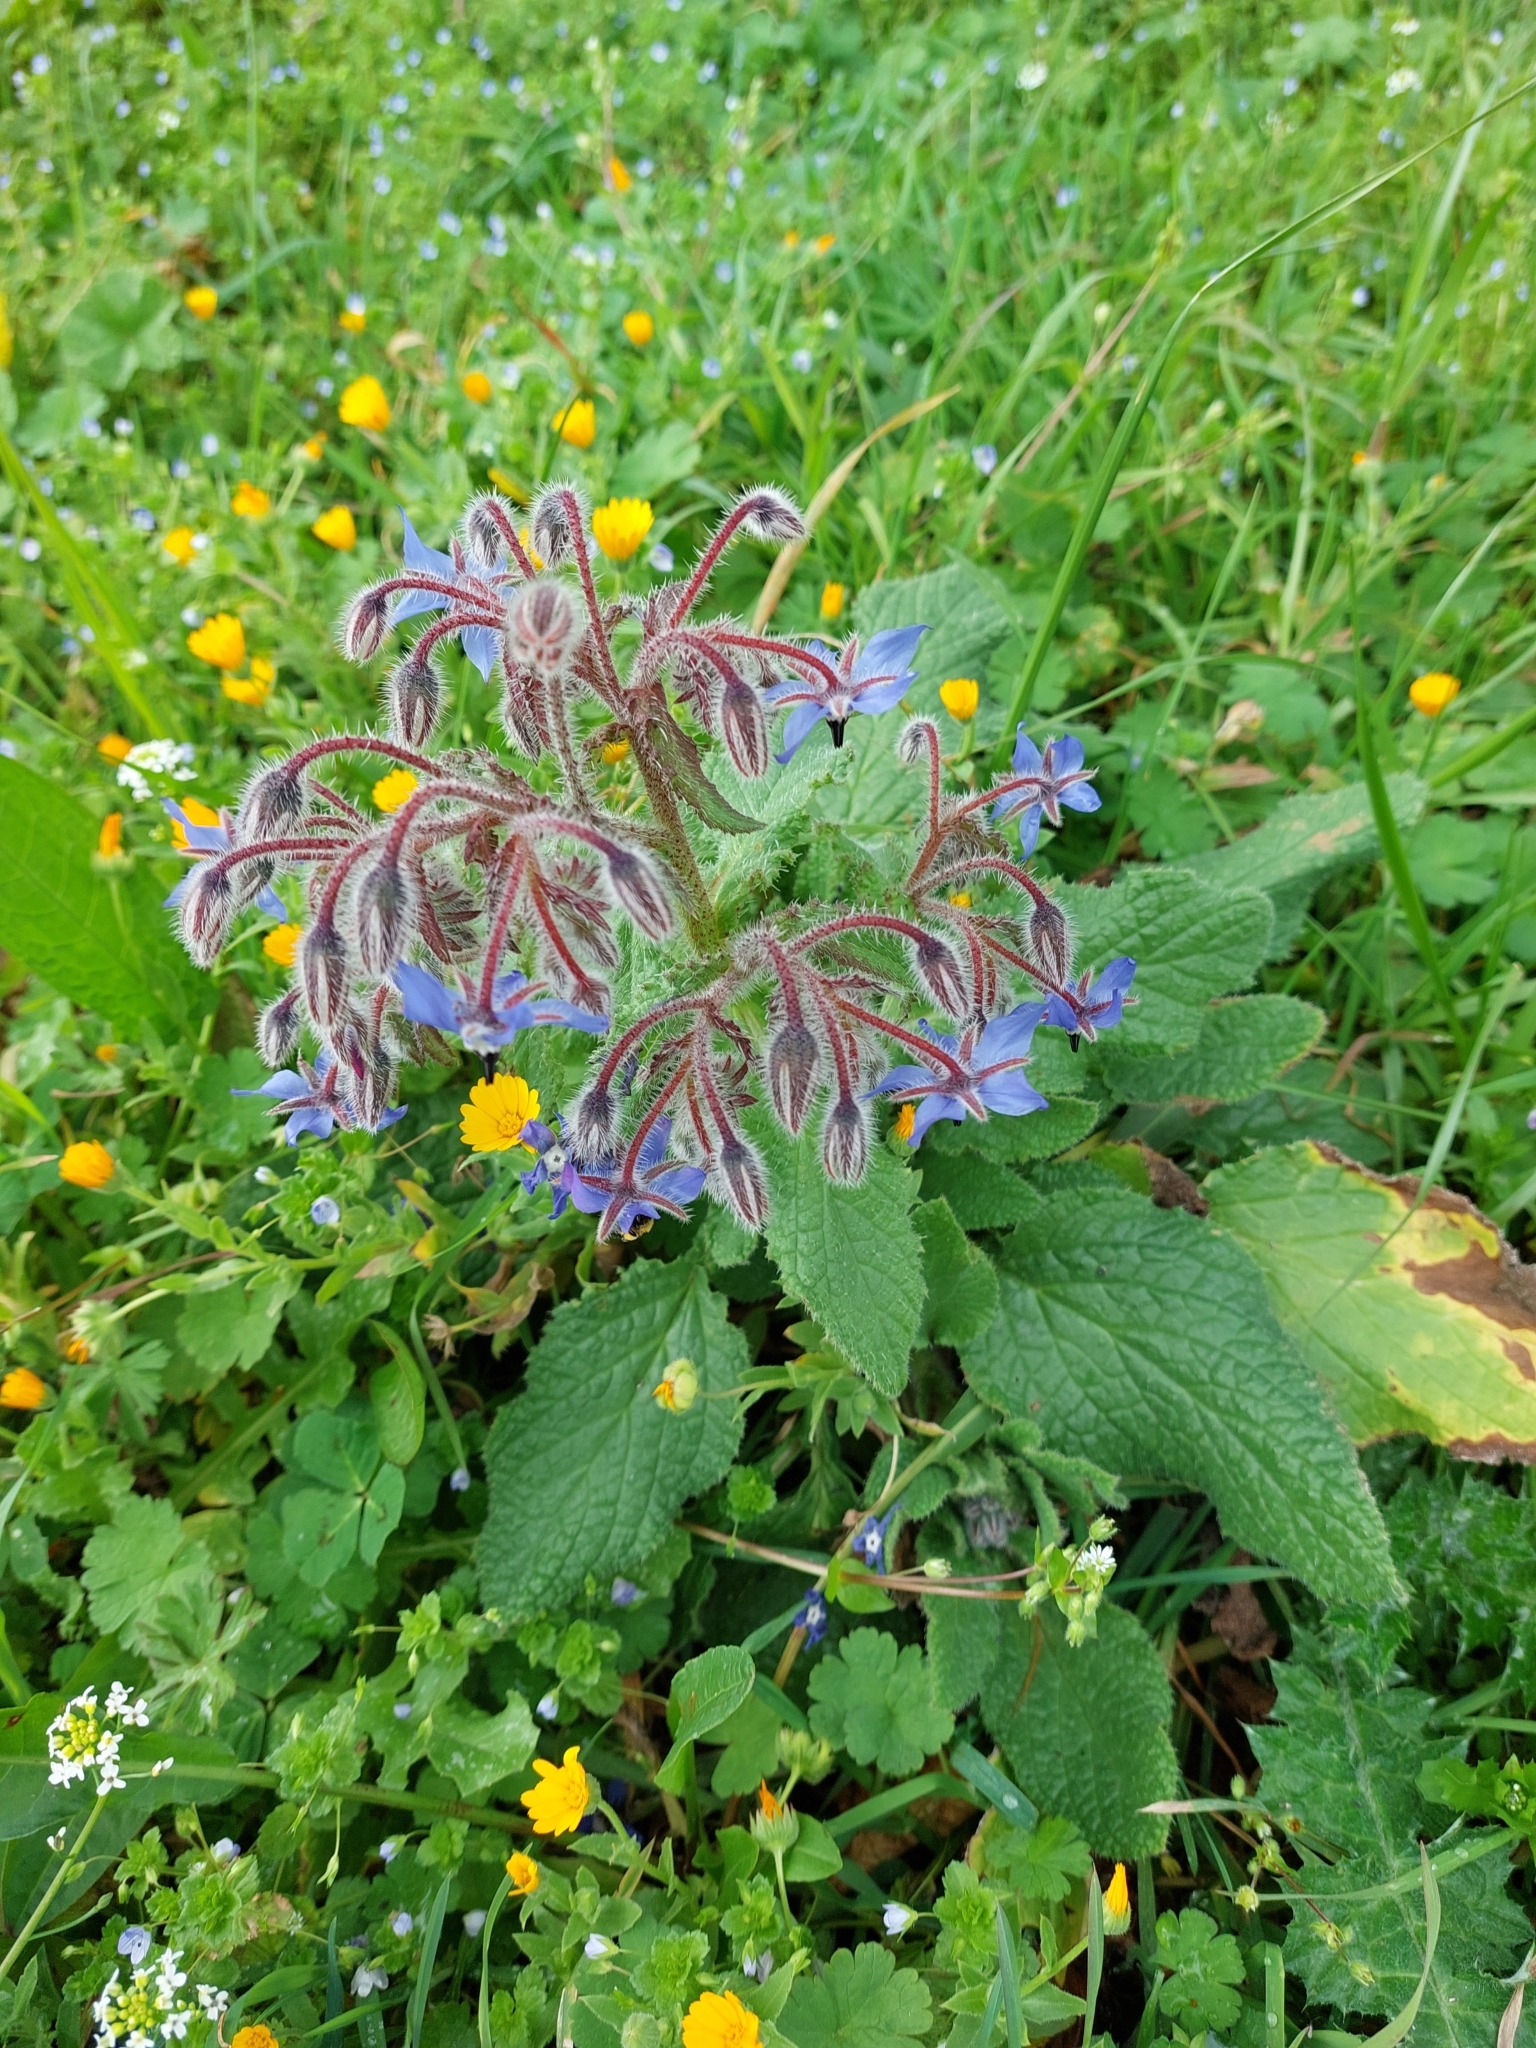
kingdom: Plantae
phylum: Tracheophyta
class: Magnoliopsida
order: Boraginales
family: Boraginaceae
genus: Borago
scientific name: Borago officinalis
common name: Borage
